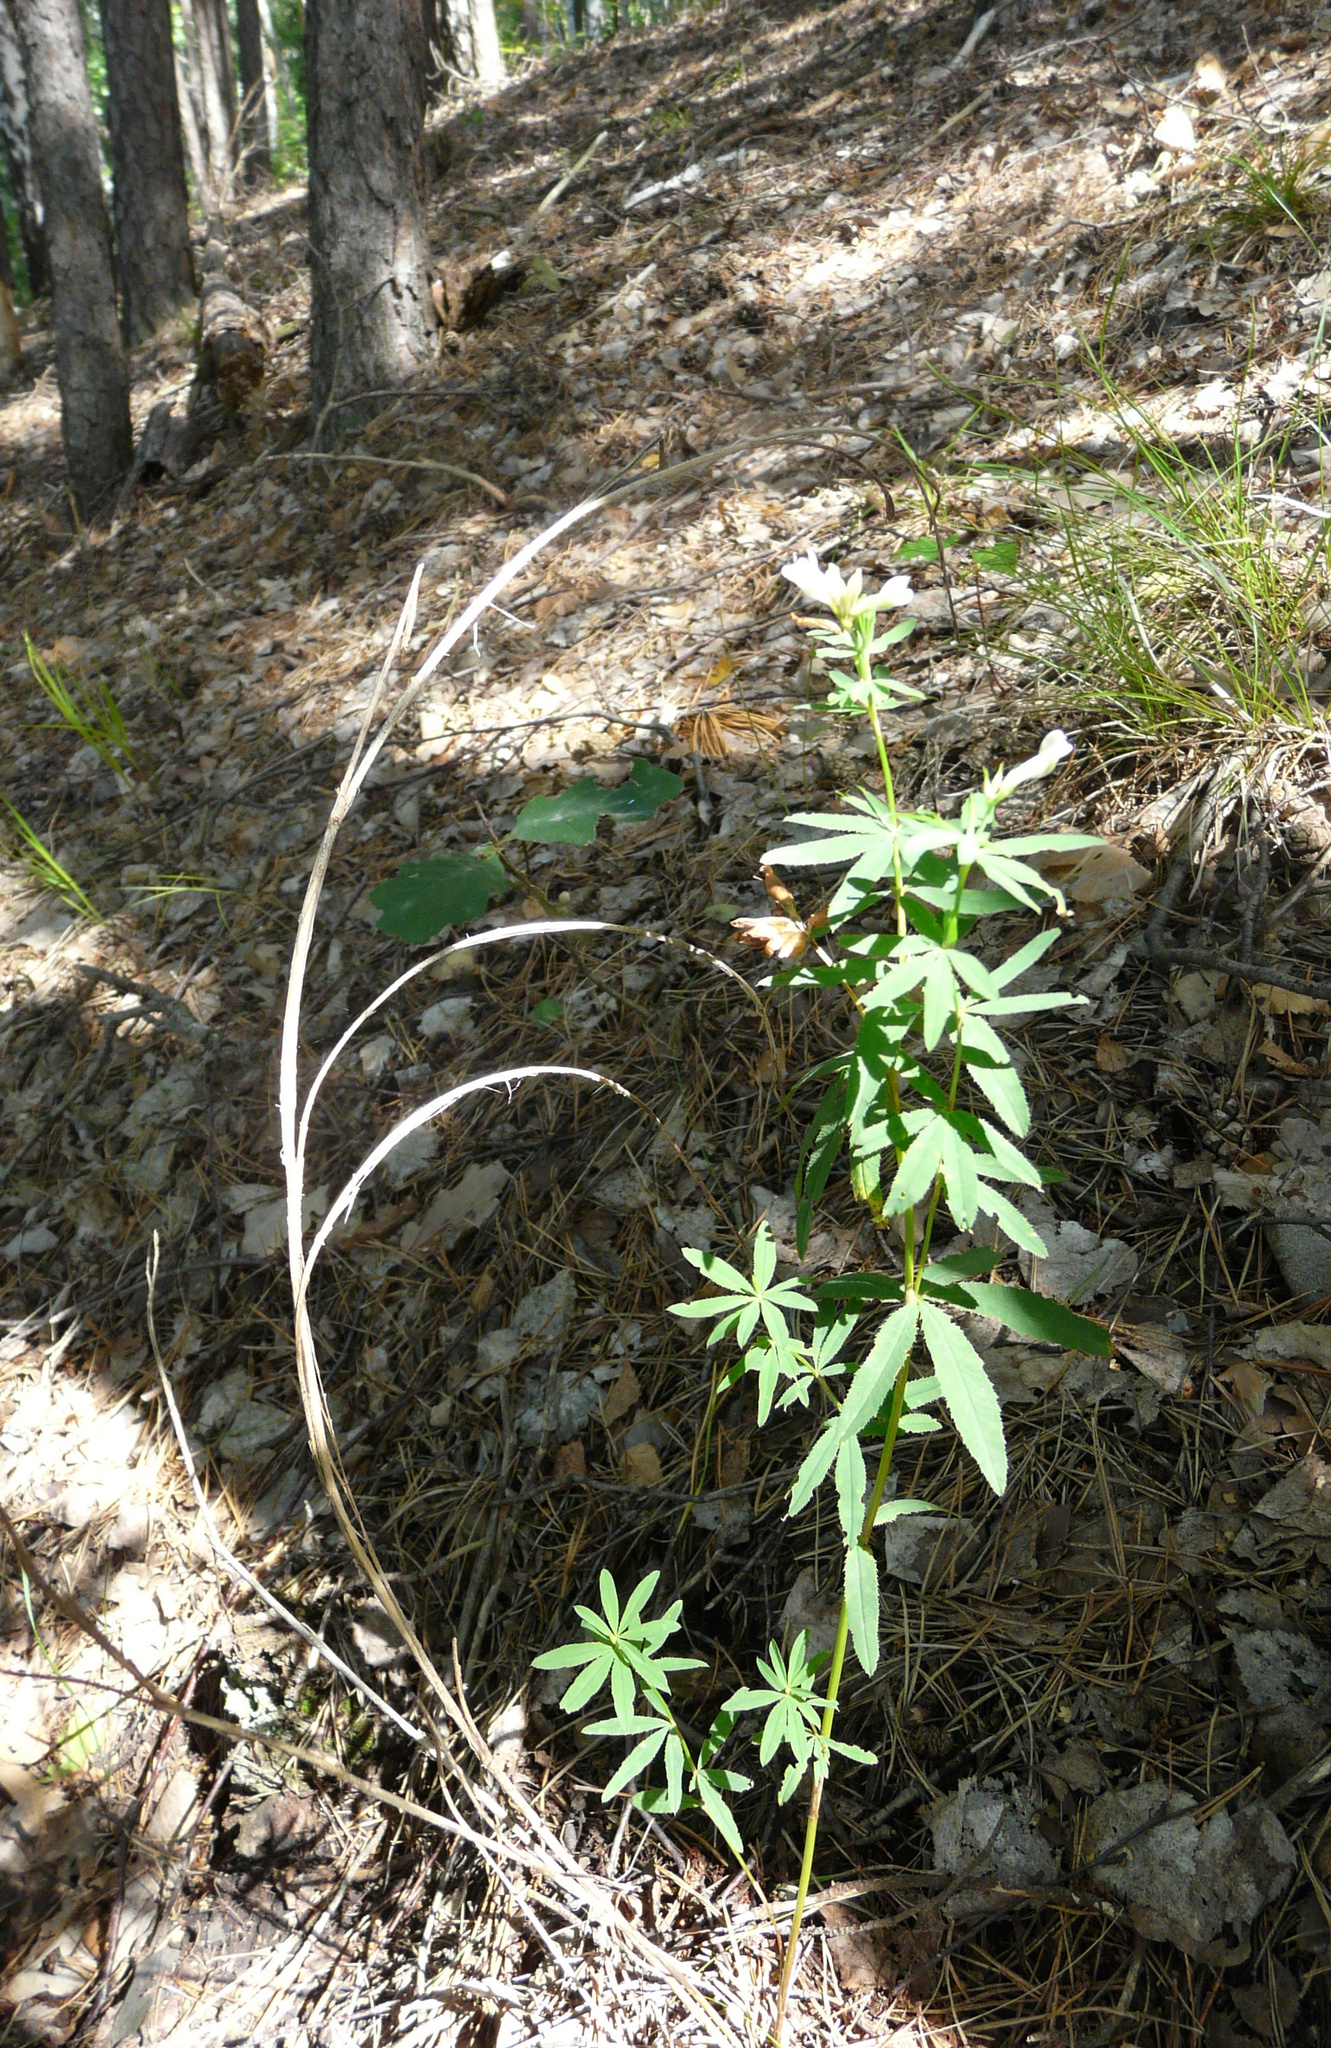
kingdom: Plantae
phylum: Tracheophyta
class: Magnoliopsida
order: Fabales
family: Fabaceae
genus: Trifolium
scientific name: Trifolium lupinaster
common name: Lupine clover
